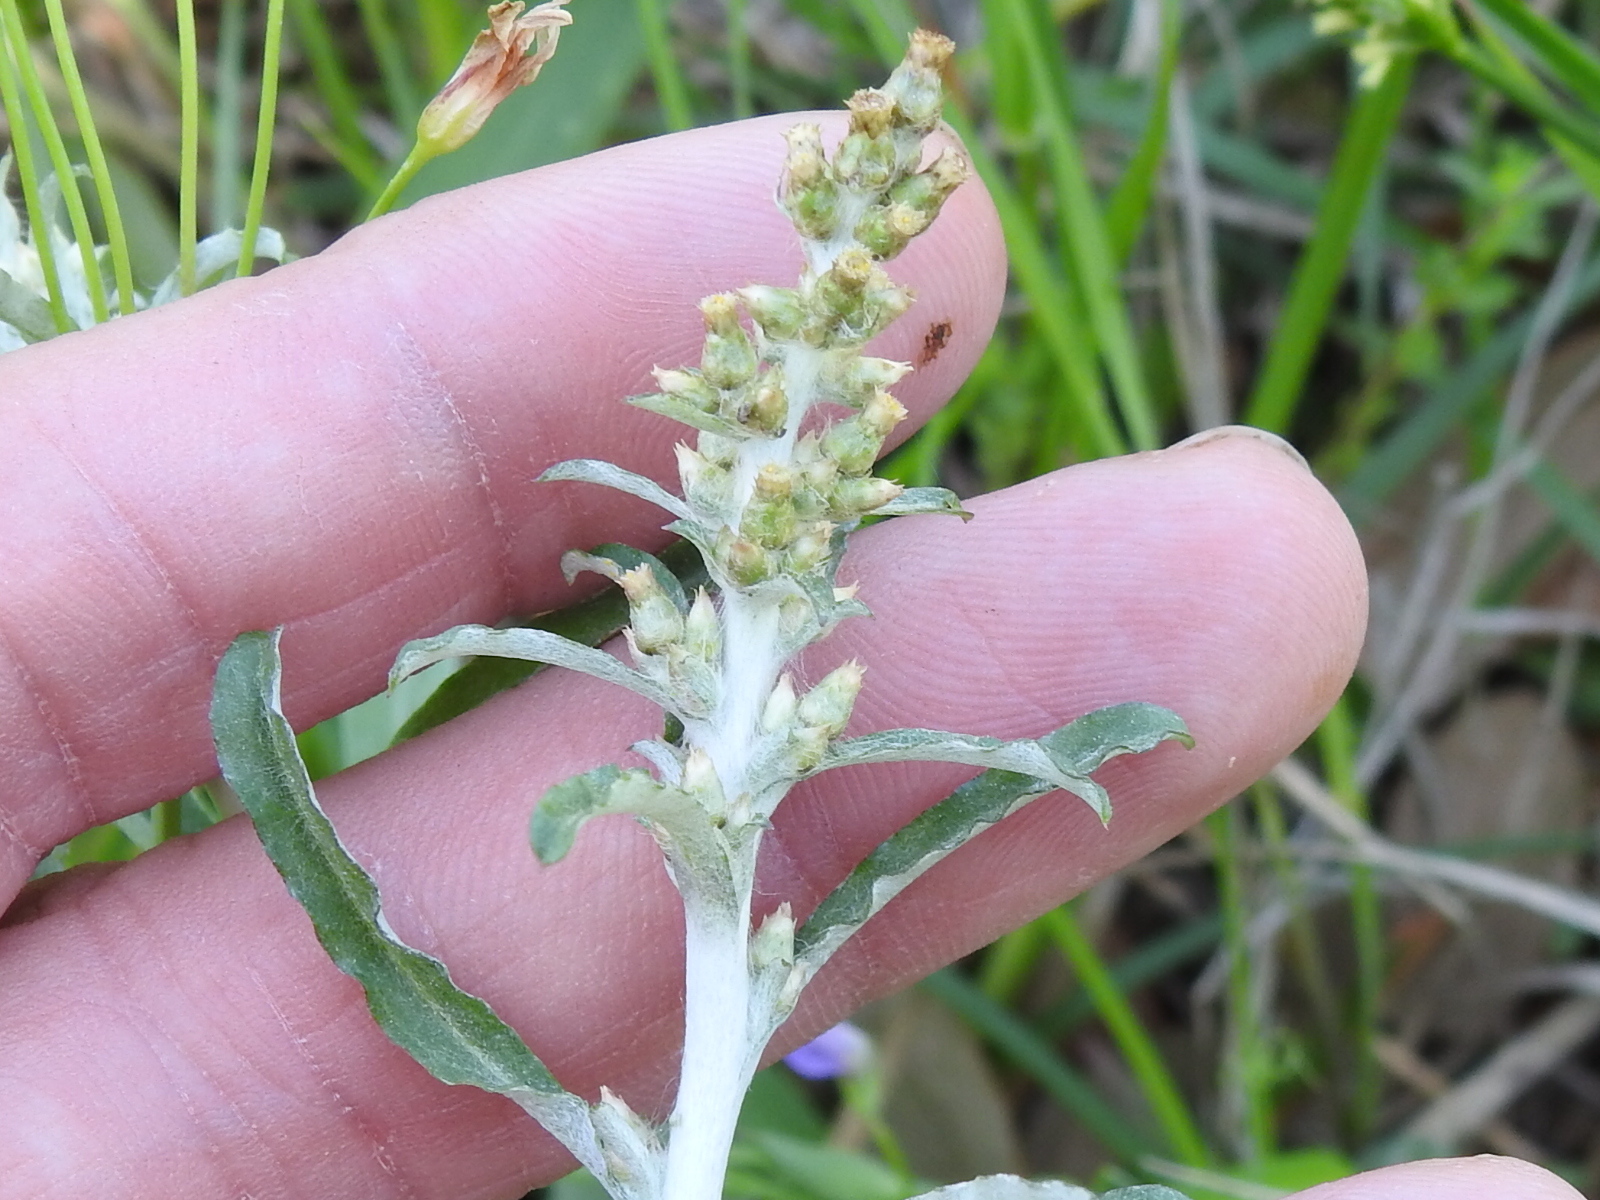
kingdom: Plantae
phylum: Tracheophyta
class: Magnoliopsida
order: Asterales
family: Asteraceae
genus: Gamochaeta
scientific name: Gamochaeta pensylvanica
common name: Pennsylvania everlasting
